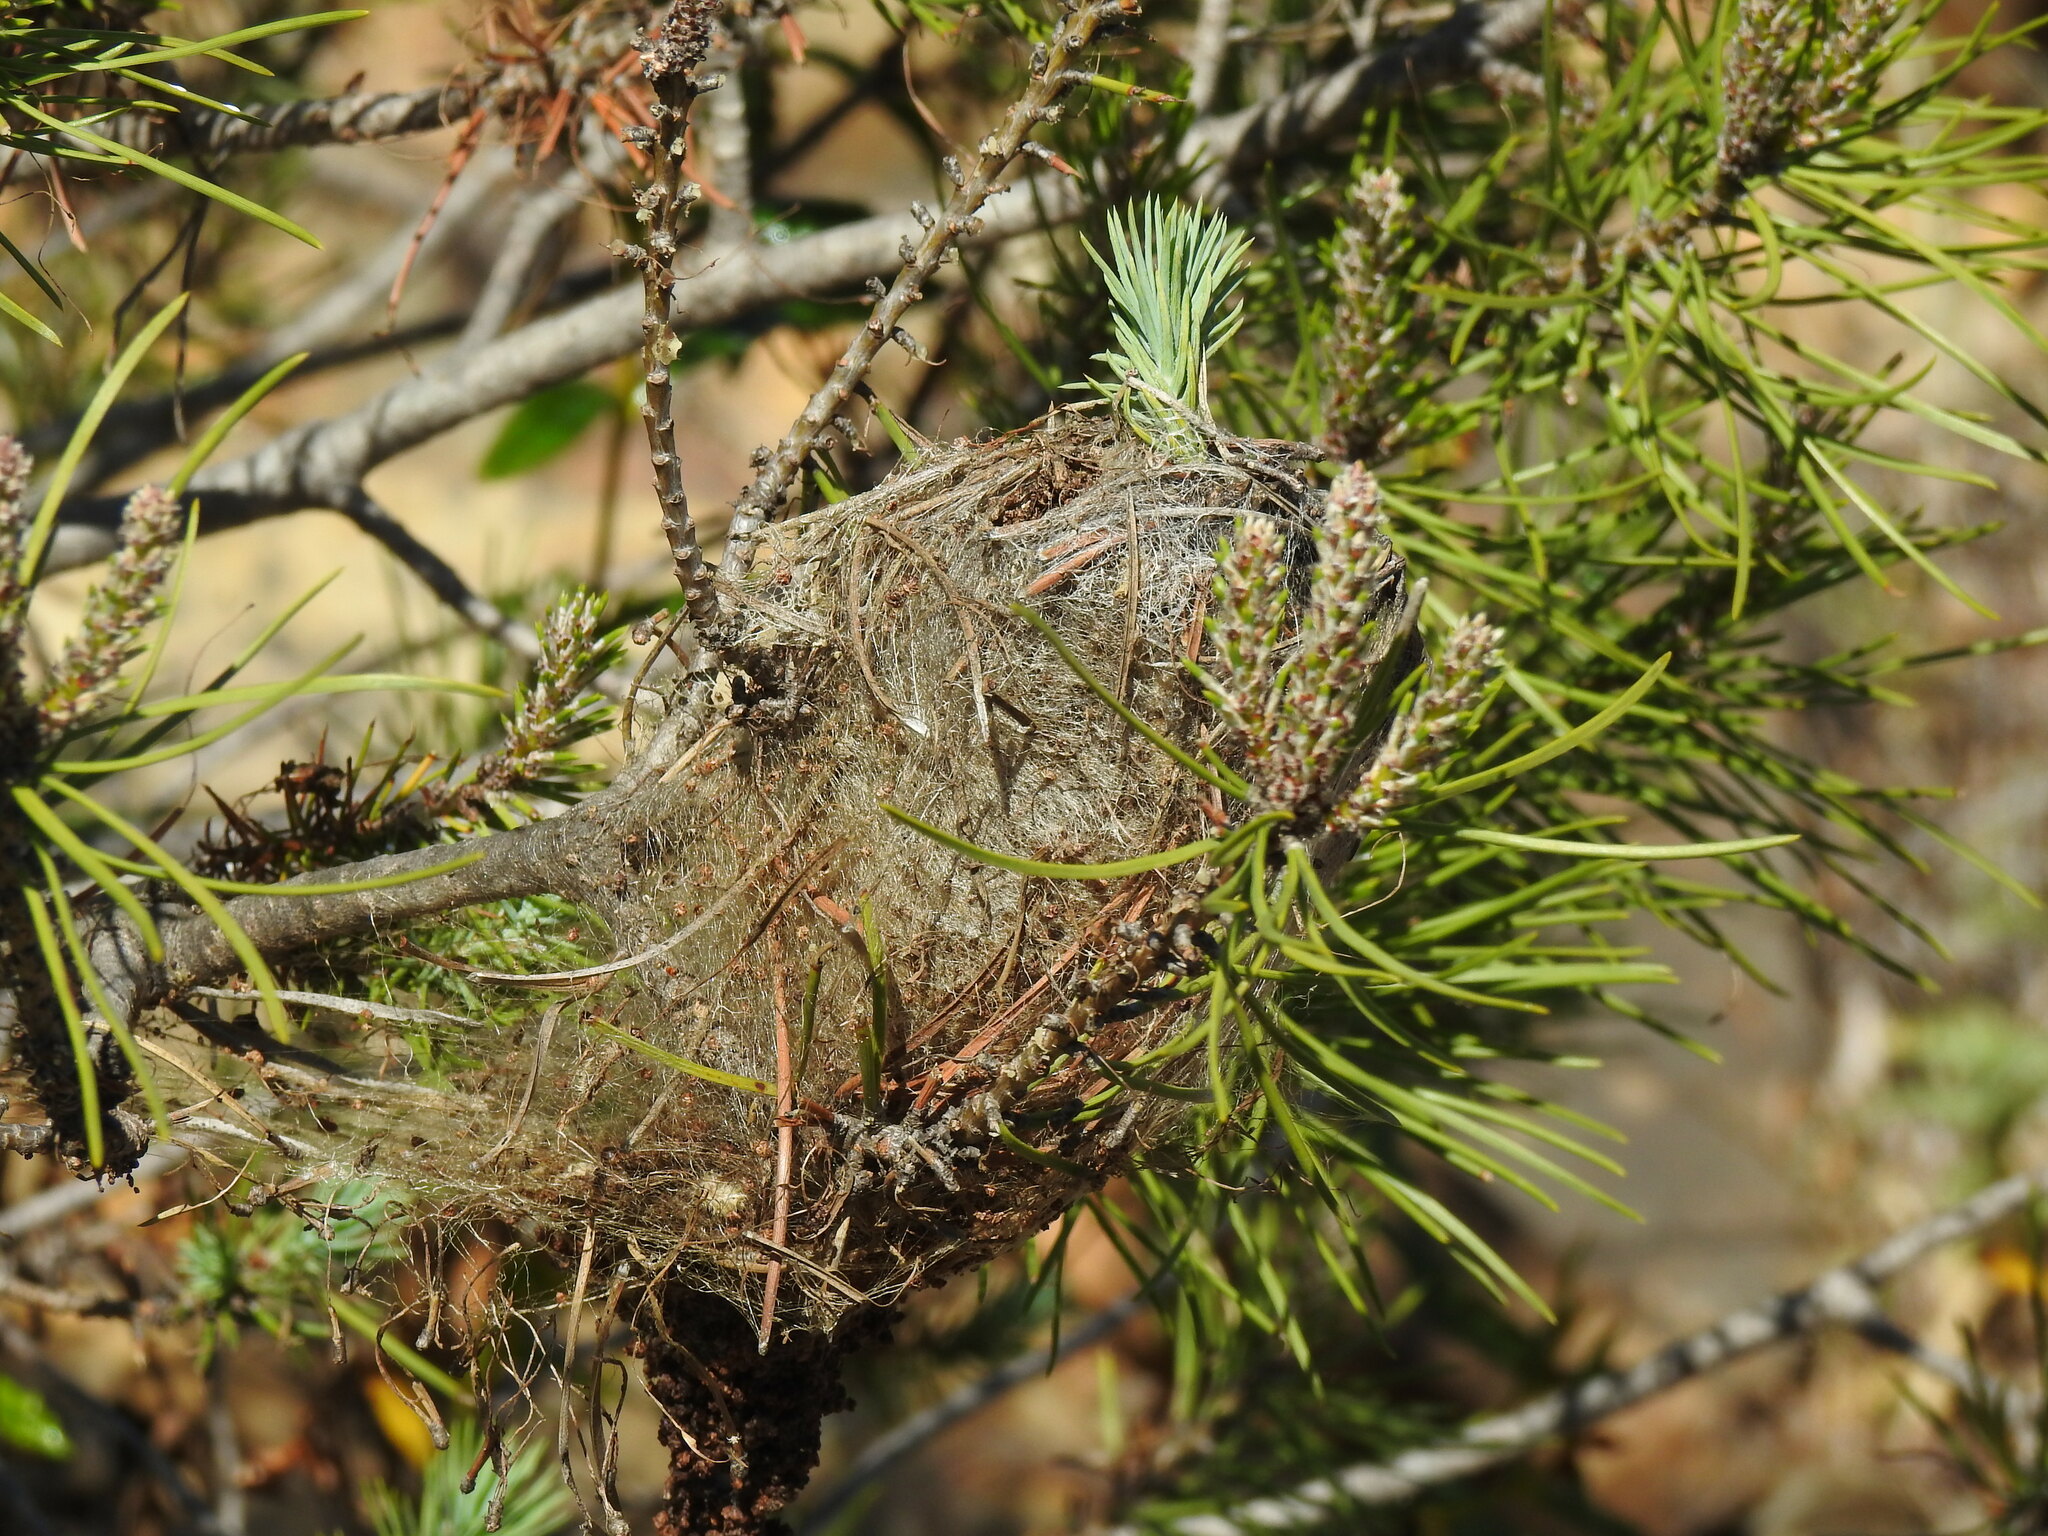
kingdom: Animalia
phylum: Arthropoda
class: Insecta
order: Lepidoptera
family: Notodontidae
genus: Thaumetopoea
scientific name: Thaumetopoea pityocampa
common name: Pine processionary
